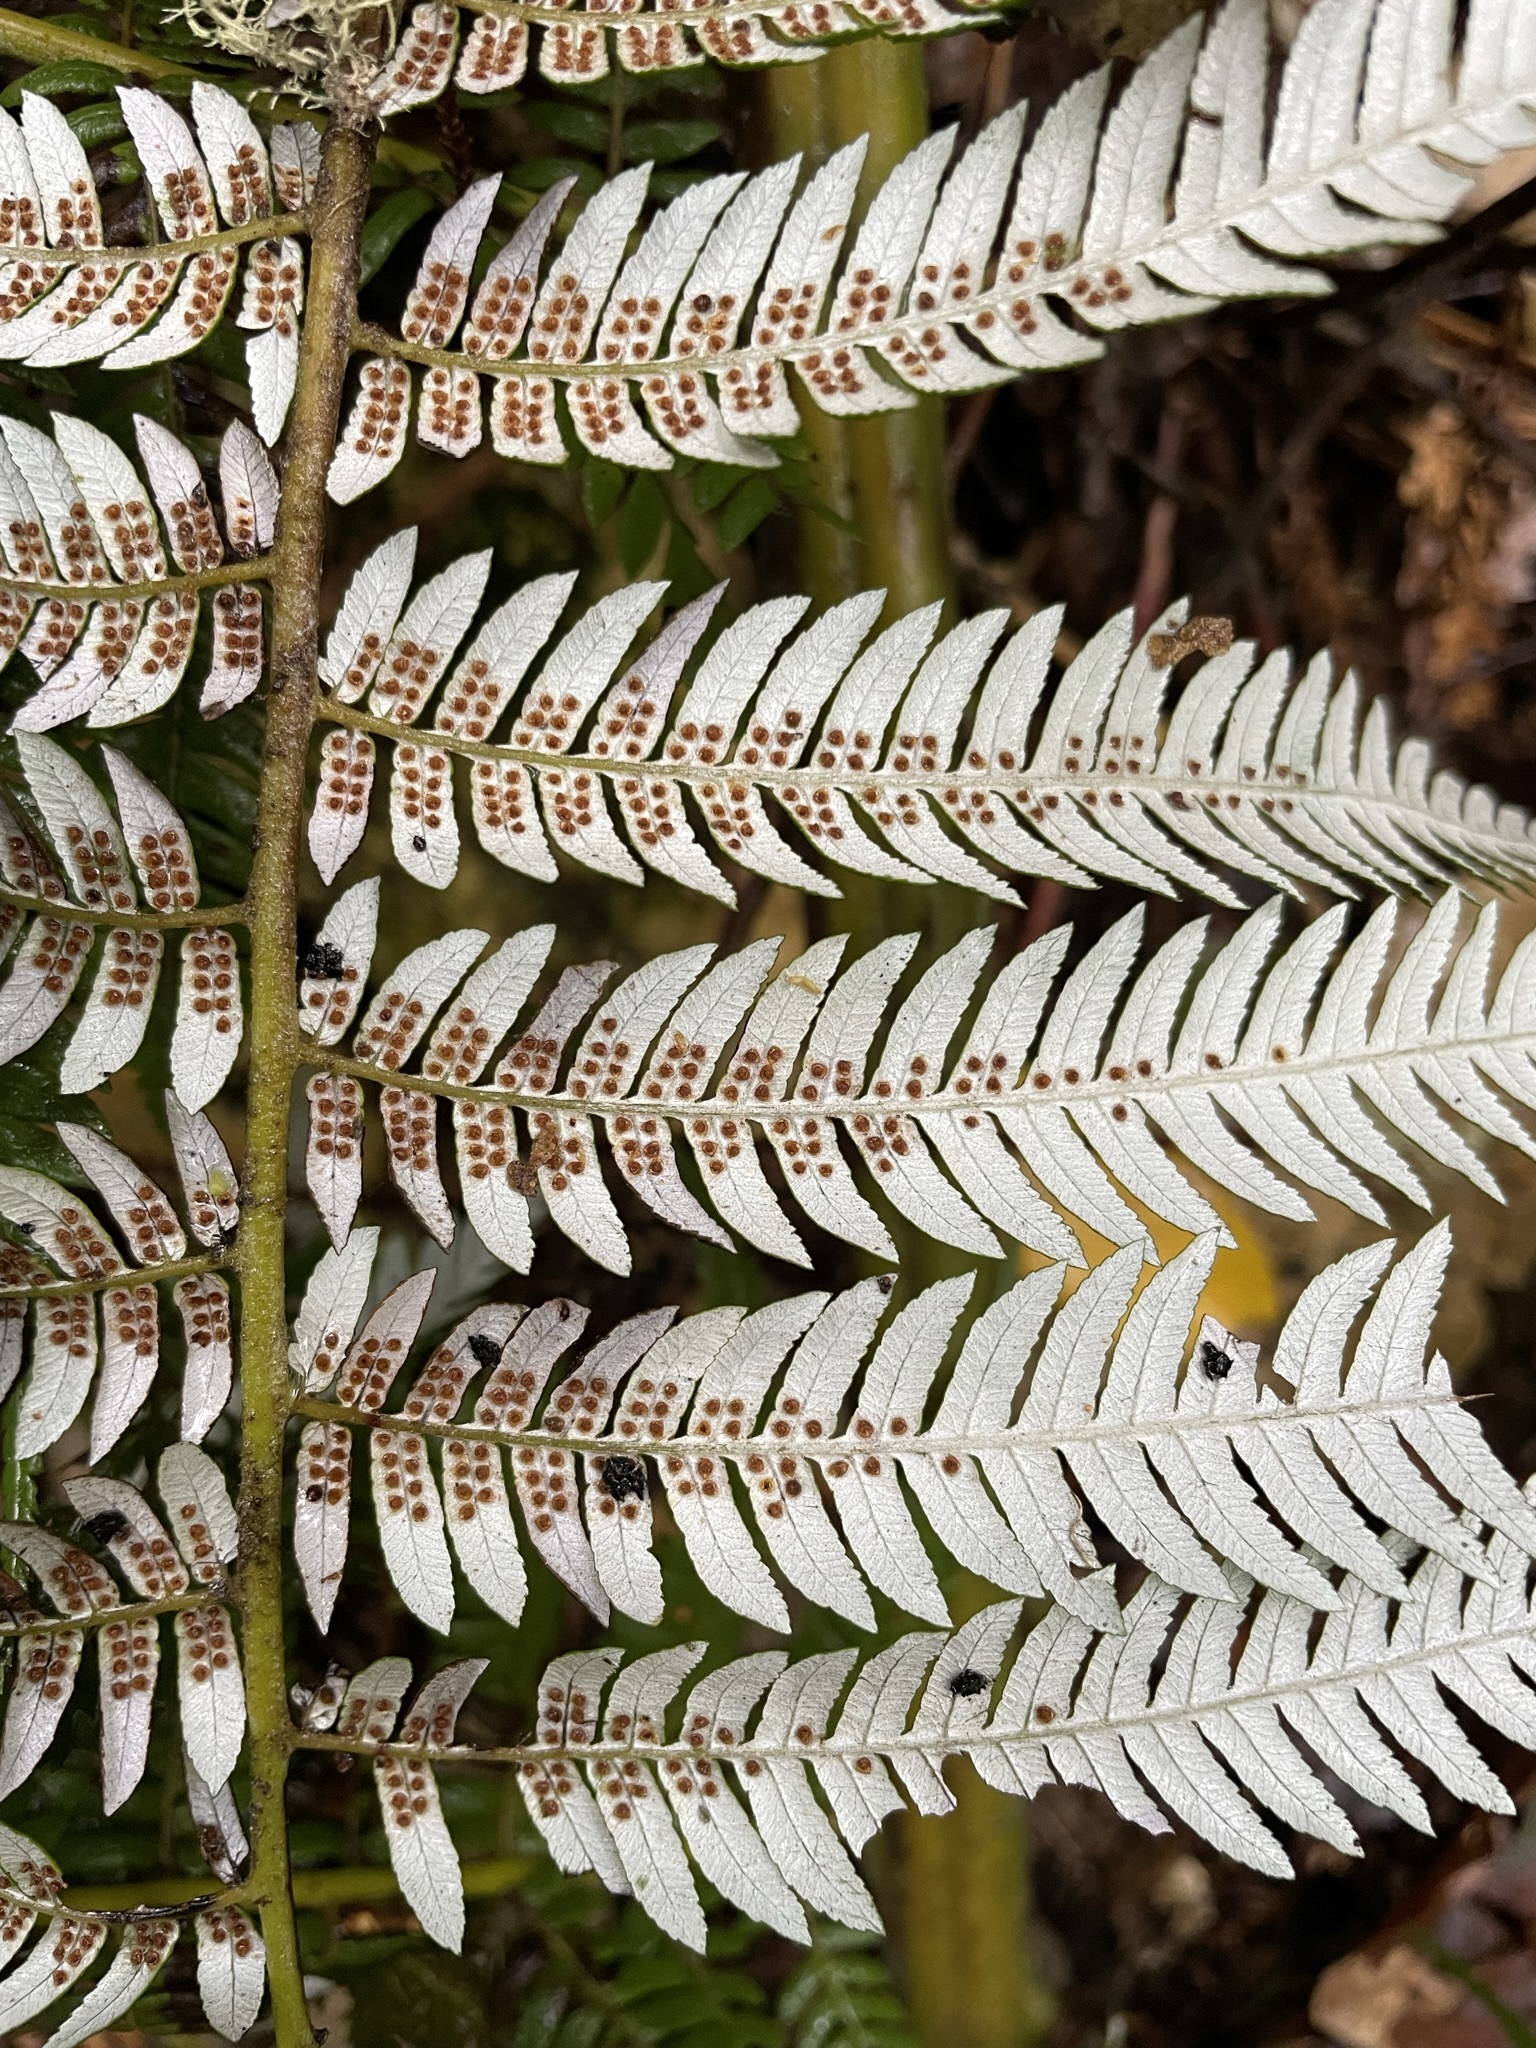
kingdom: Plantae
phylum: Tracheophyta
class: Polypodiopsida
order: Cyatheales
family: Cyatheaceae
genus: Alsophila
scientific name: Alsophila dealbata
